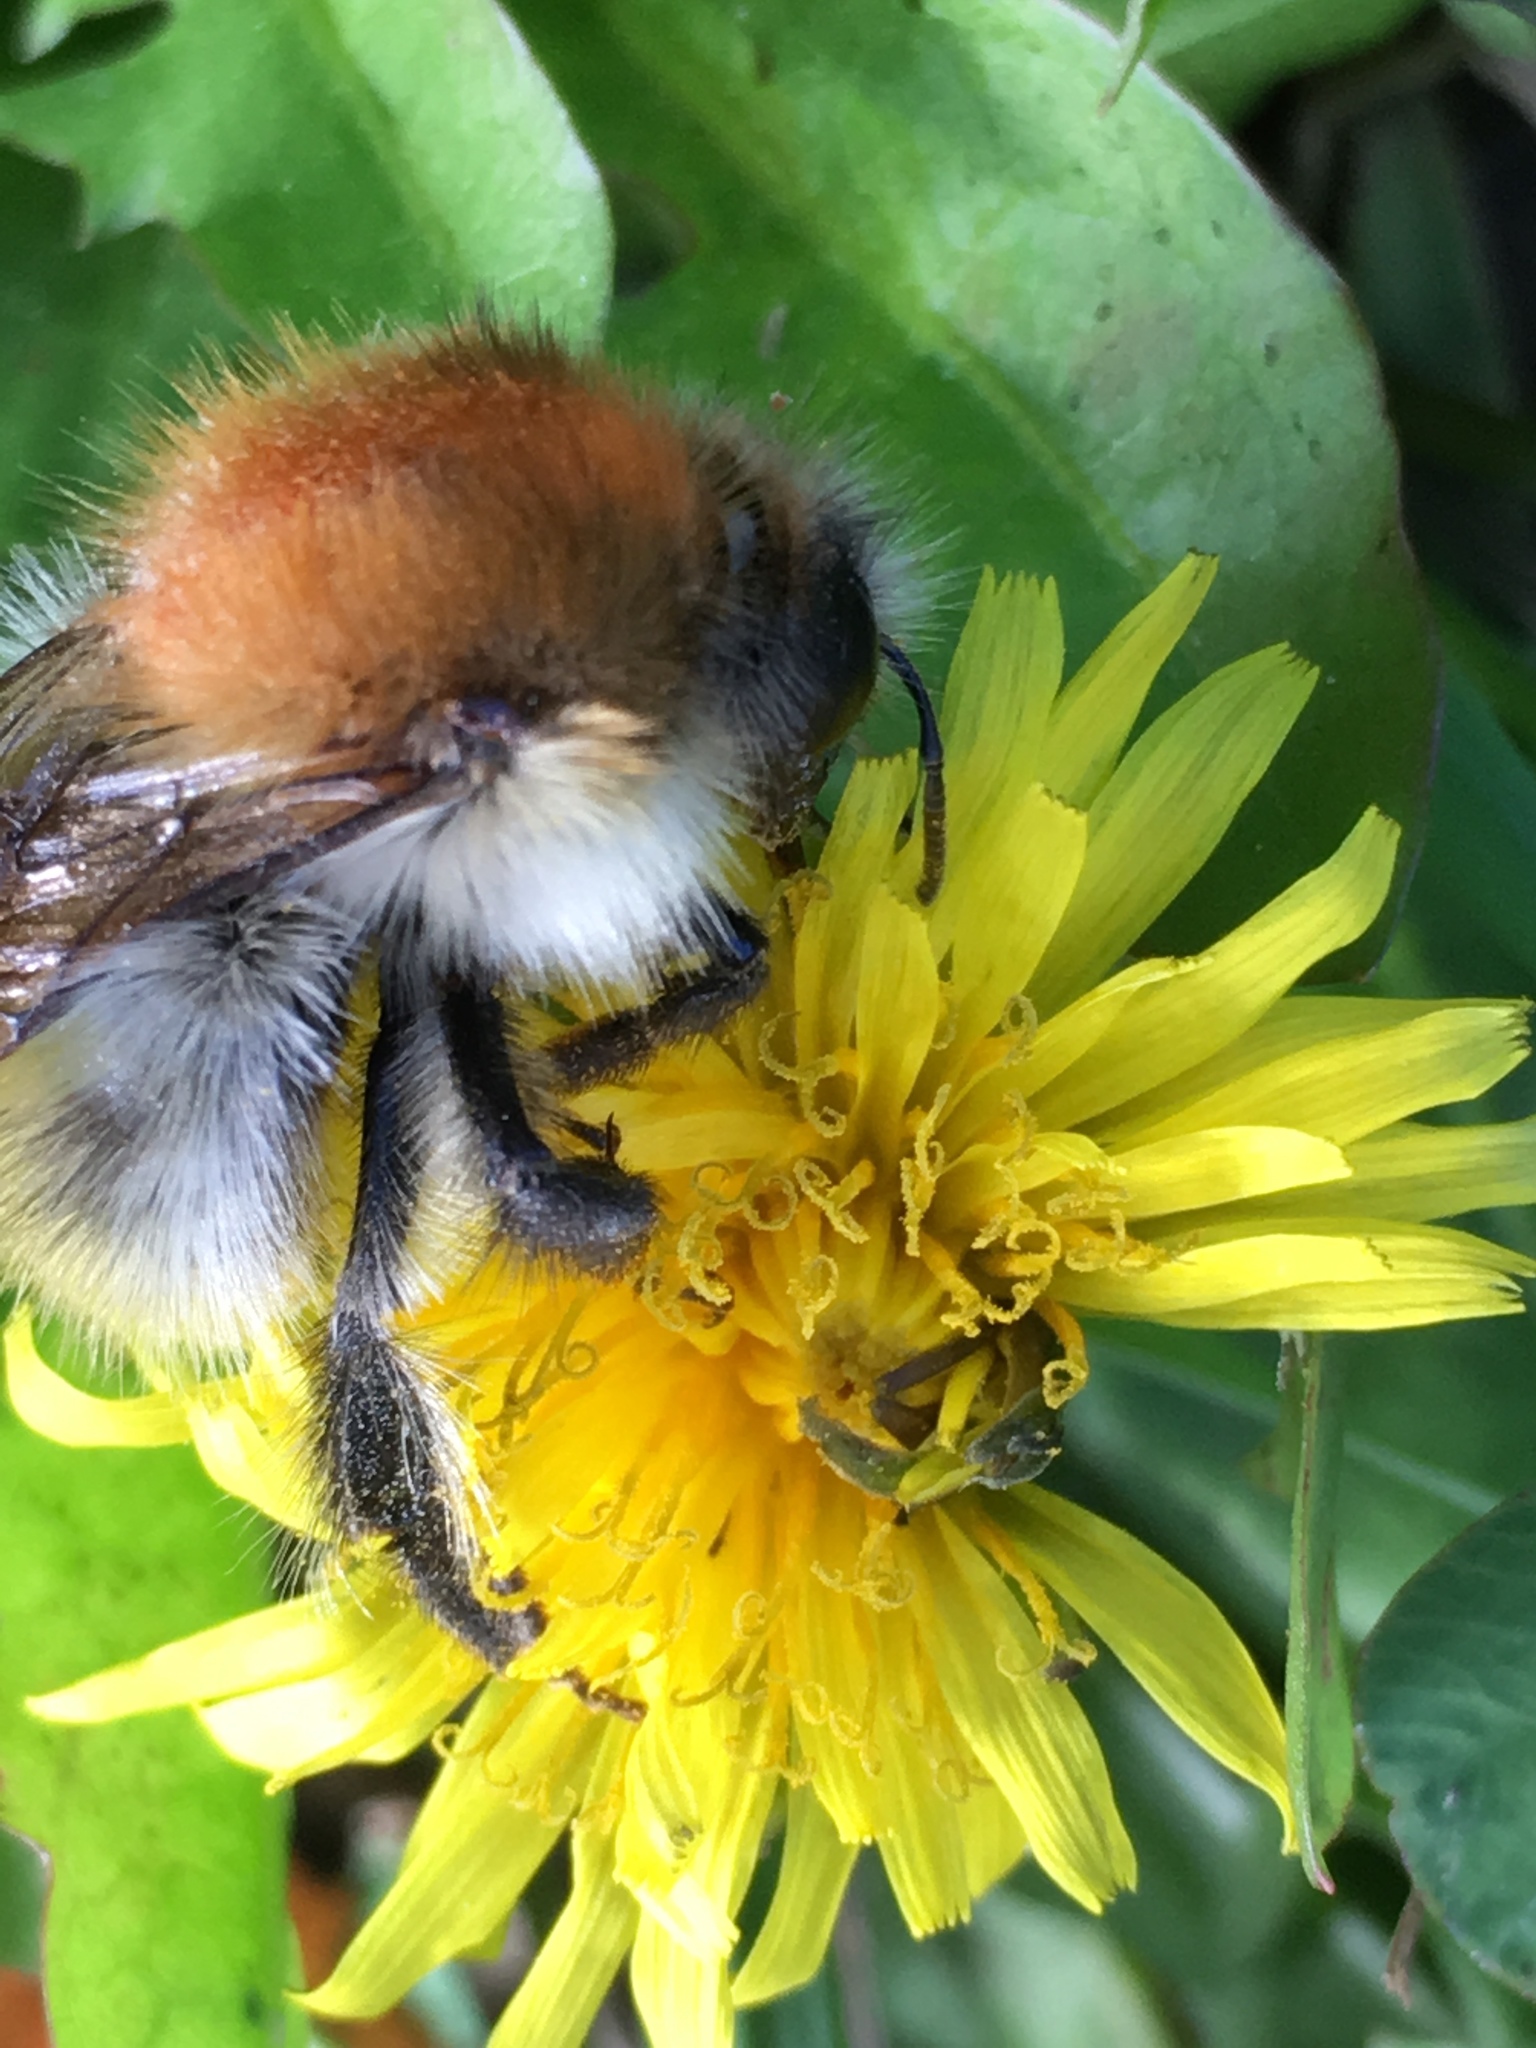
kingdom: Animalia
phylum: Arthropoda
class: Insecta
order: Hymenoptera
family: Apidae
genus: Bombus
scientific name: Bombus pascuorum
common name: Common carder bee
